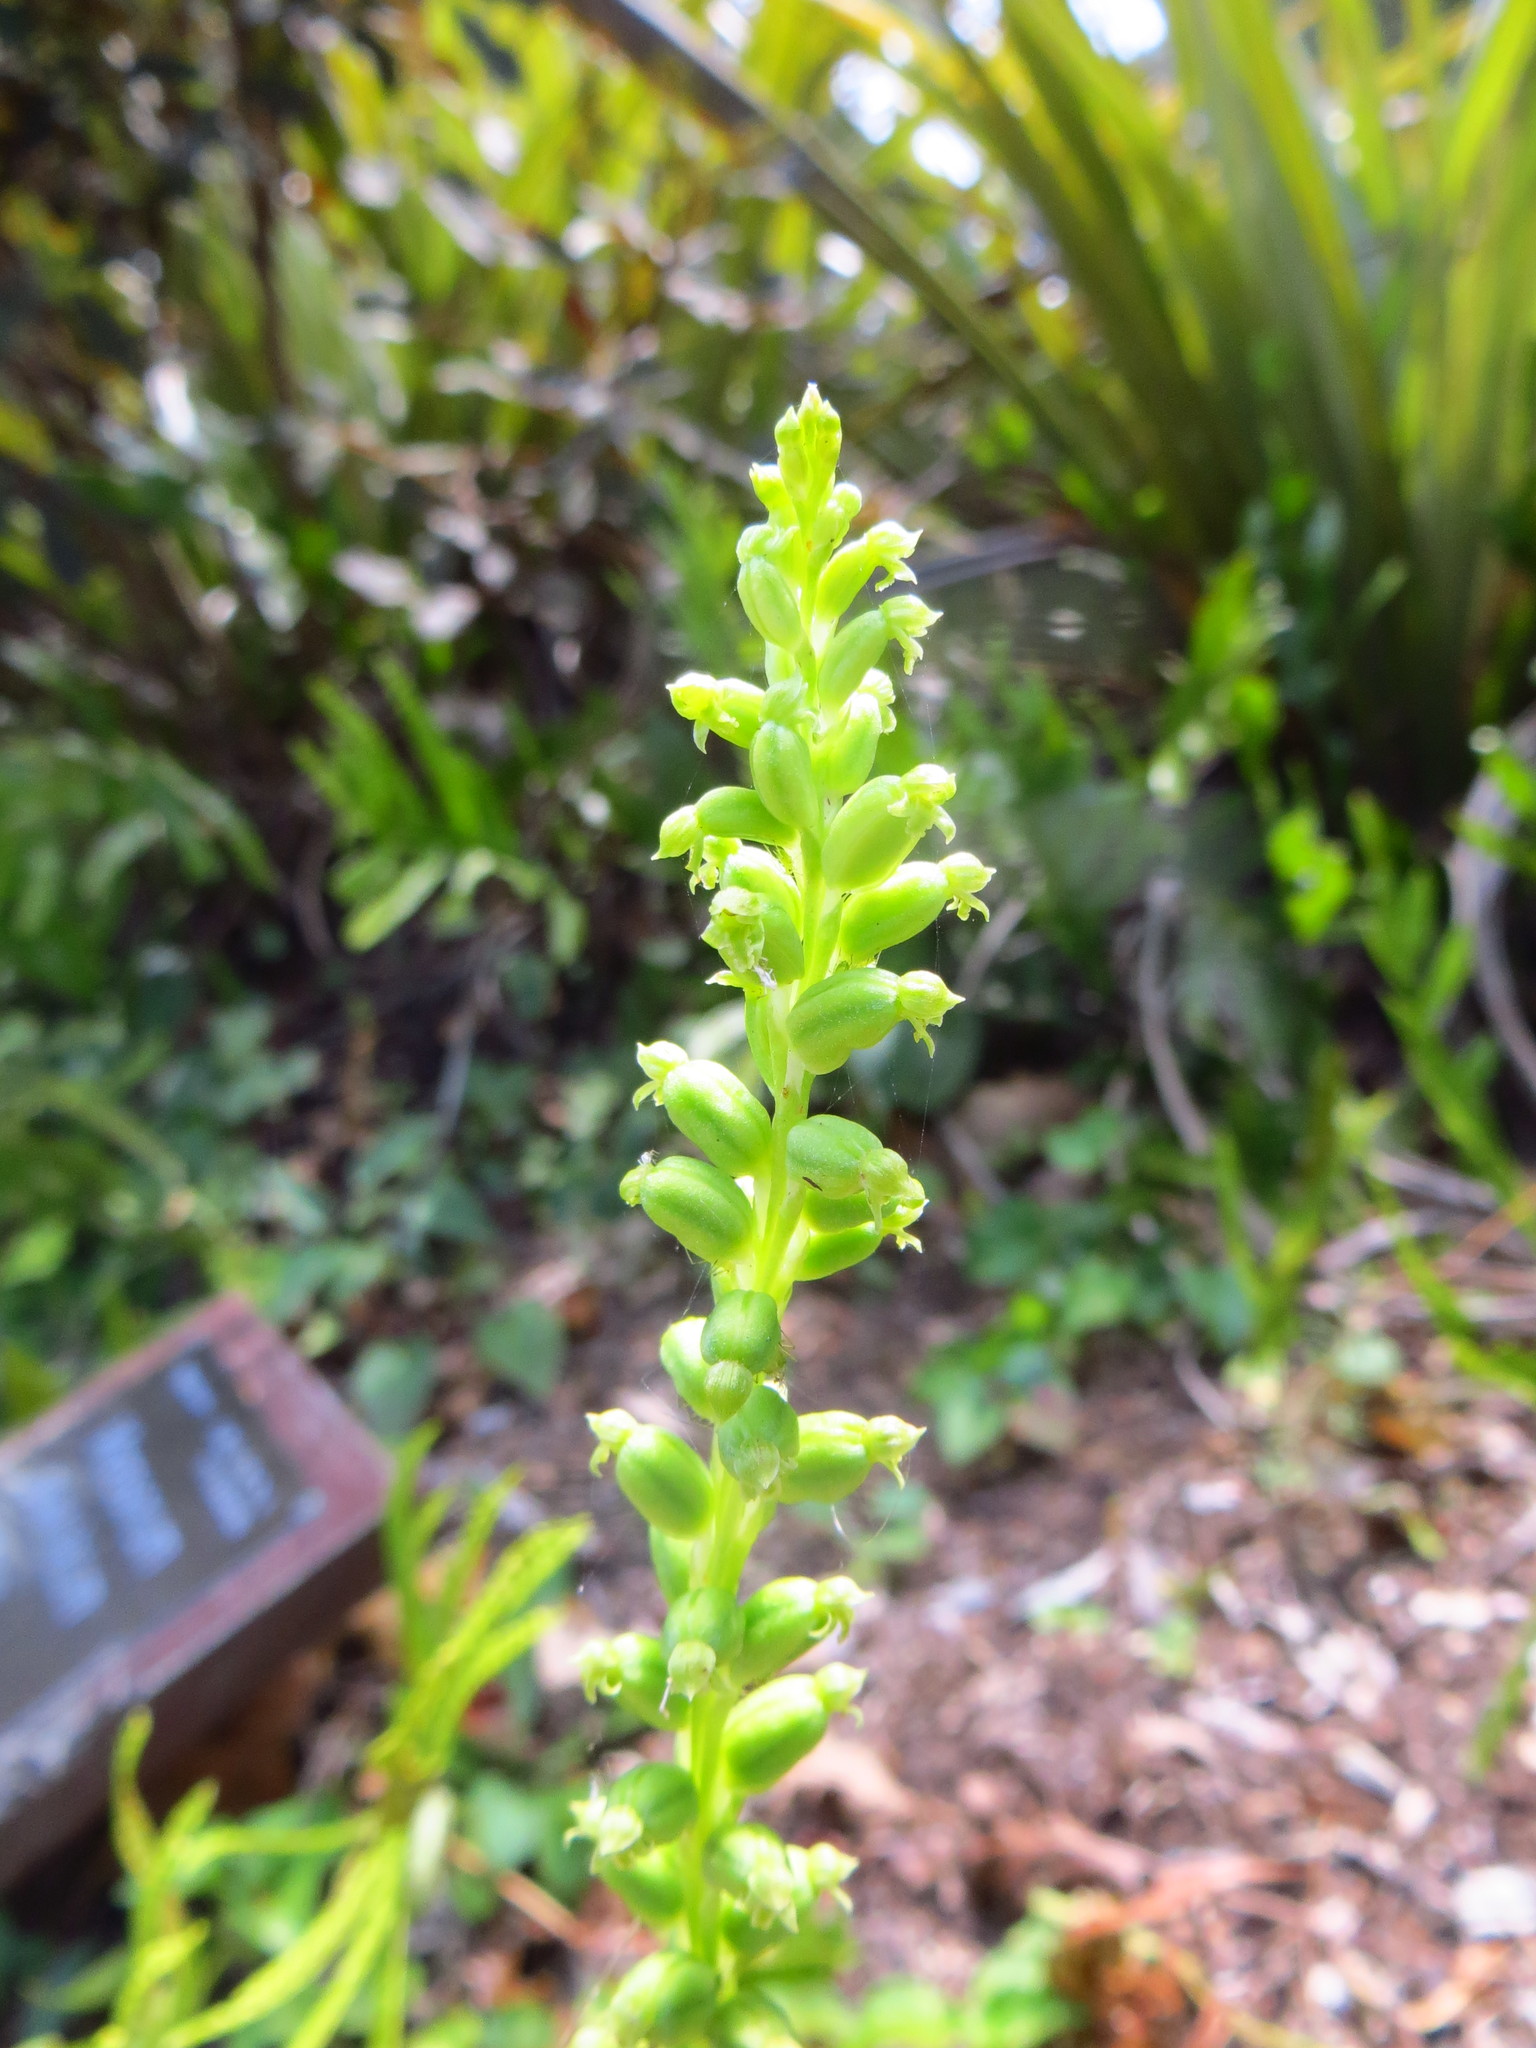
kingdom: Plantae
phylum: Tracheophyta
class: Liliopsida
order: Asparagales
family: Orchidaceae
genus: Microtis
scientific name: Microtis unifolia
